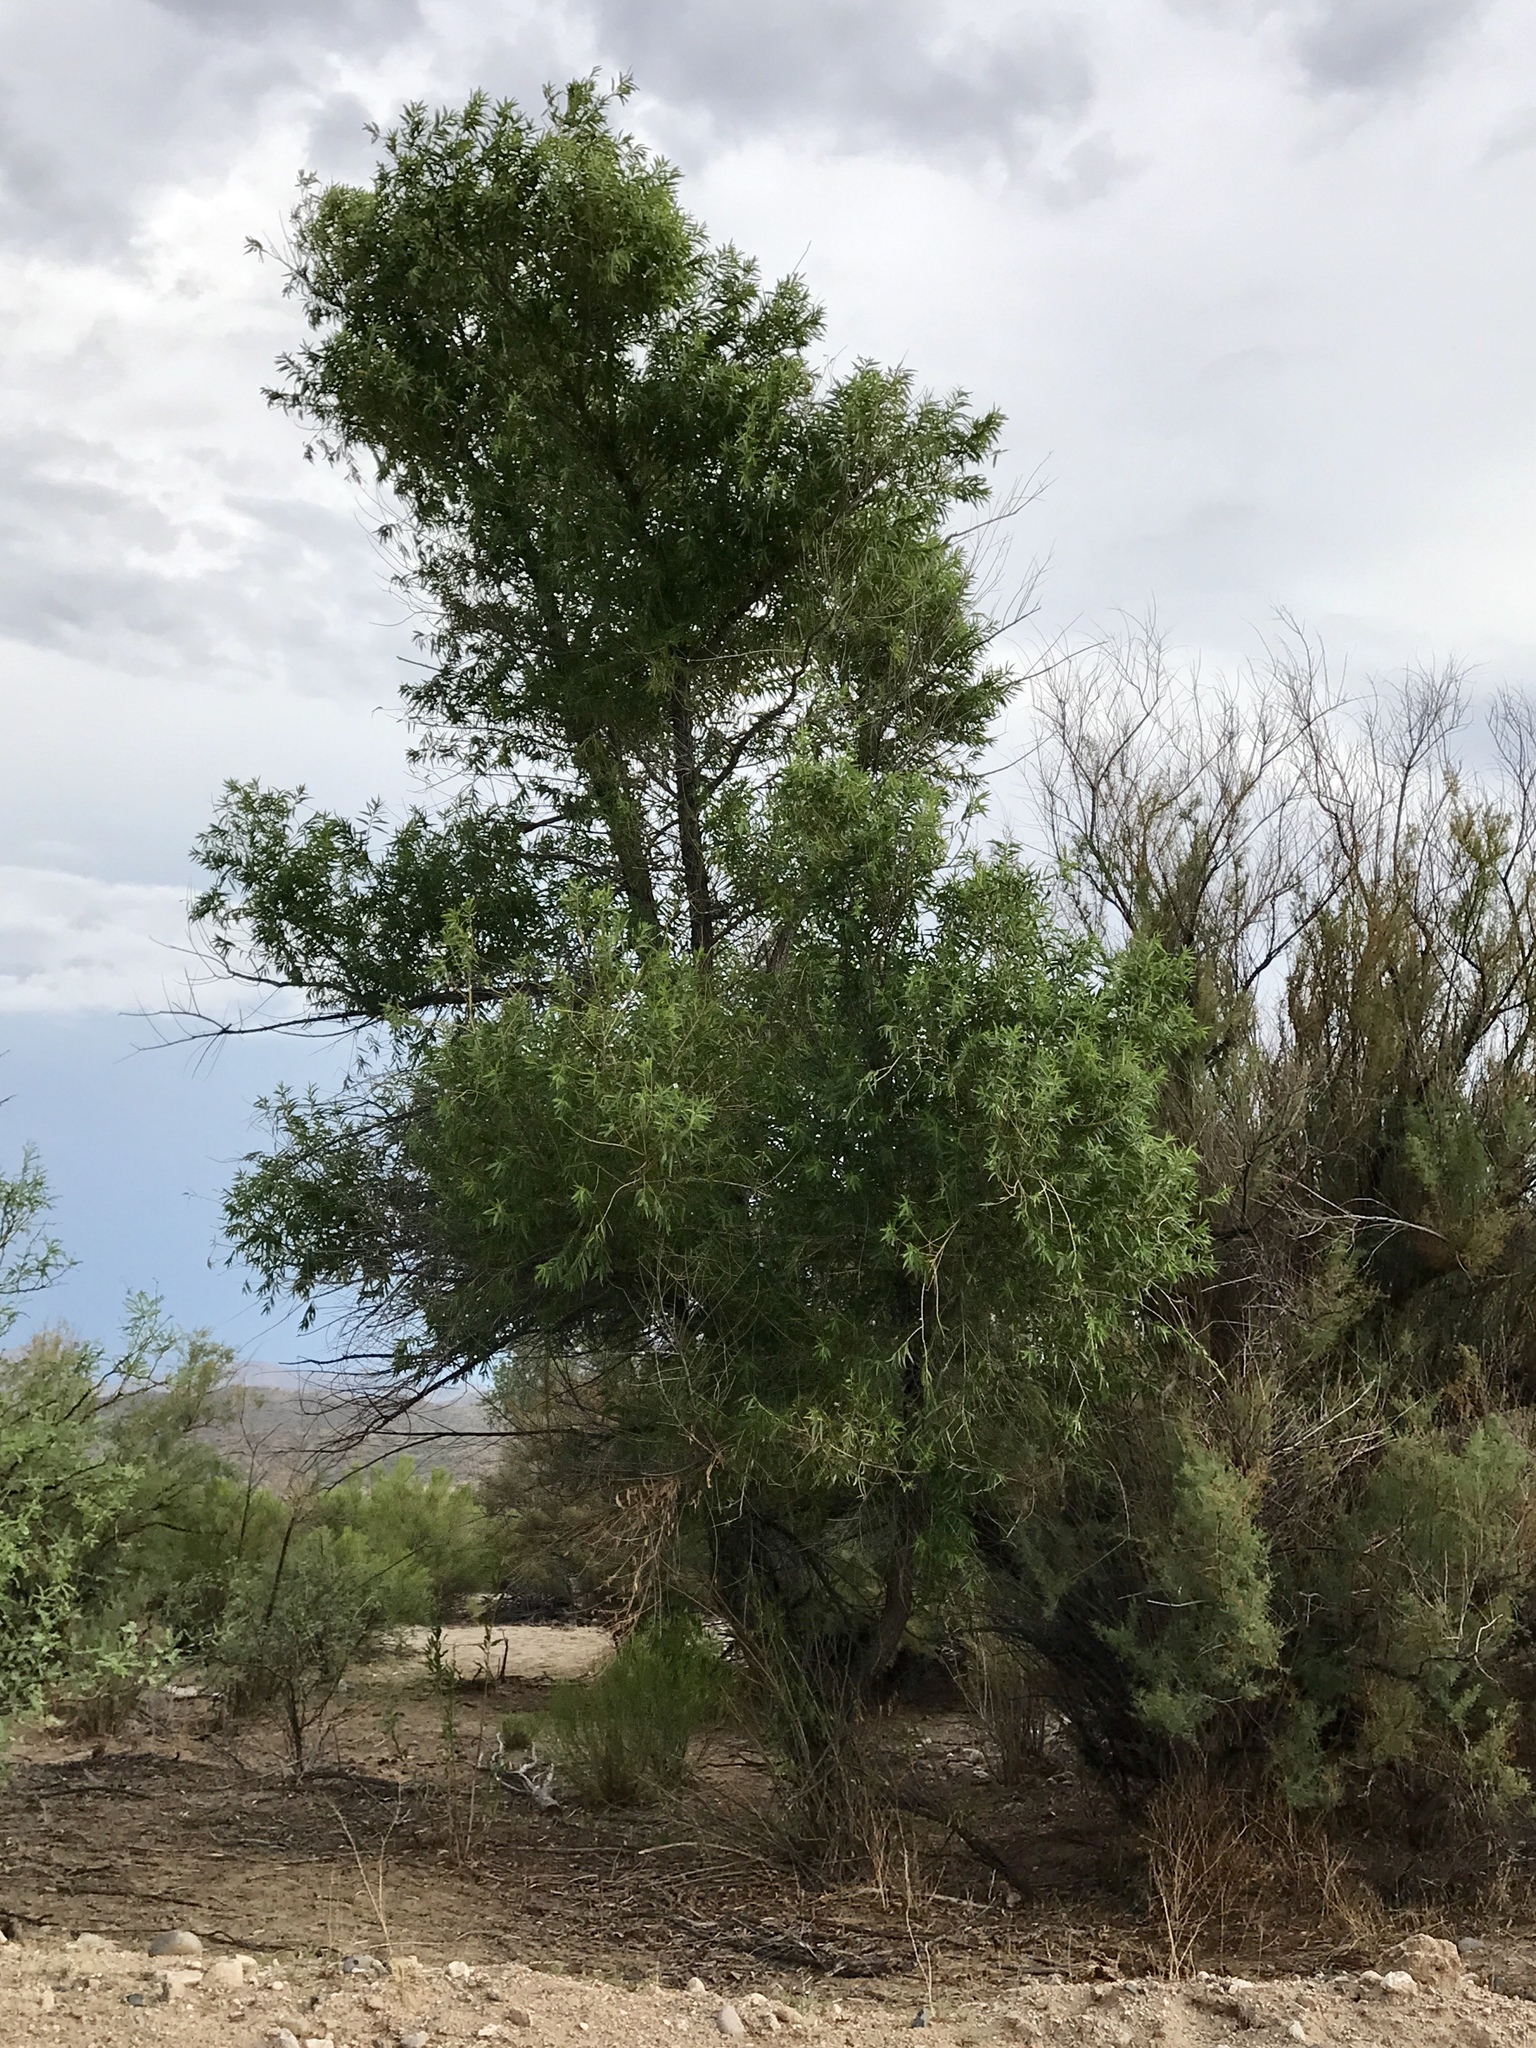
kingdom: Plantae
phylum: Tracheophyta
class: Magnoliopsida
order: Malpighiales
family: Salicaceae
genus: Salix
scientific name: Salix gooddingii
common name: Goodding's willow
